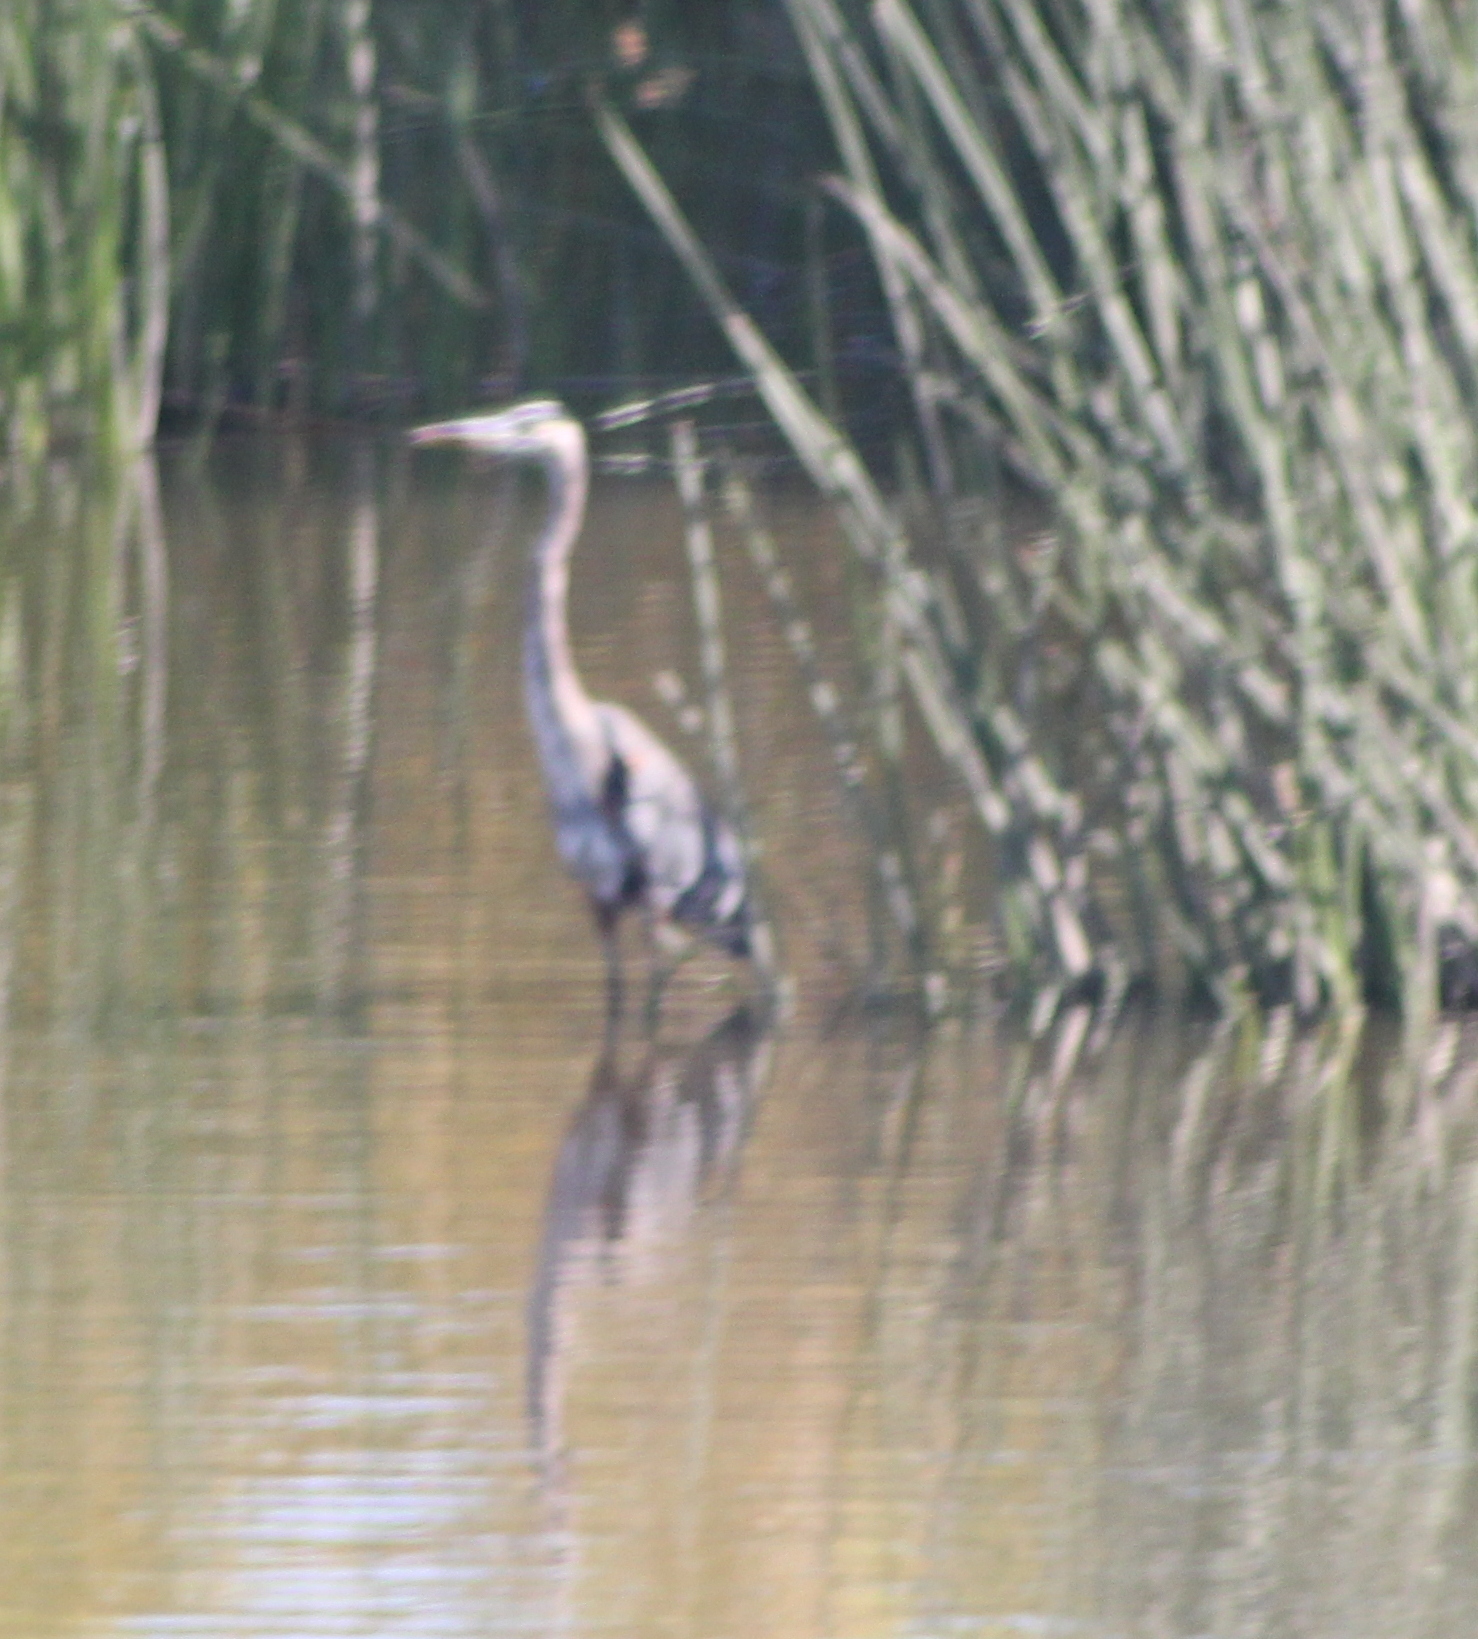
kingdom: Animalia
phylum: Chordata
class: Aves
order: Pelecaniformes
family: Ardeidae
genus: Ardea
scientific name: Ardea herodias
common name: Great blue heron
